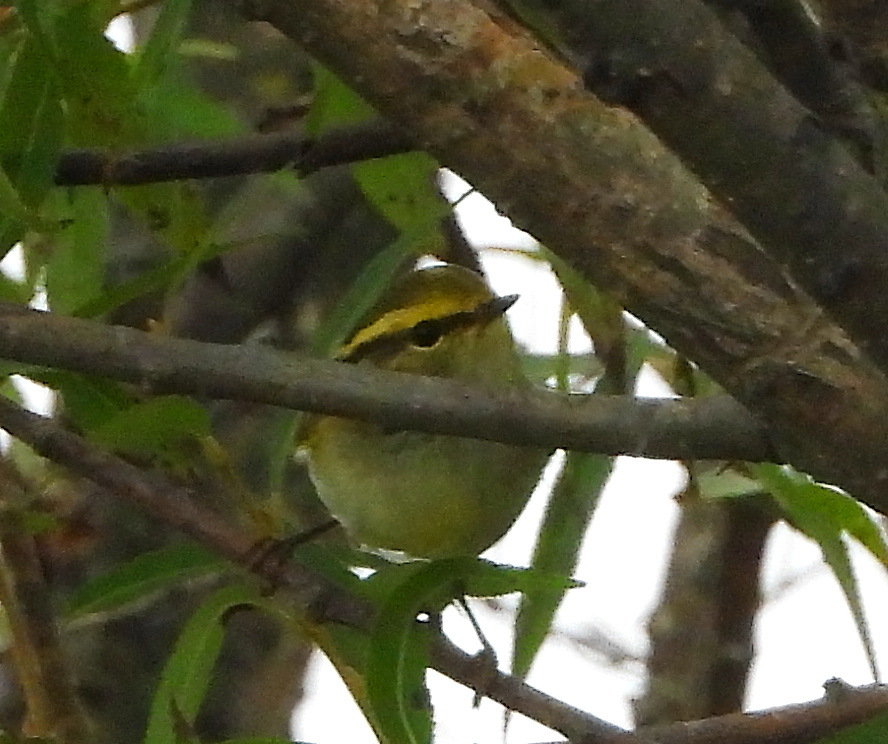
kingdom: Animalia
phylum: Chordata
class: Aves
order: Passeriformes
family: Phylloscopidae
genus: Phylloscopus
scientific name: Phylloscopus proregulus
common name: Pallas's leaf warbler
